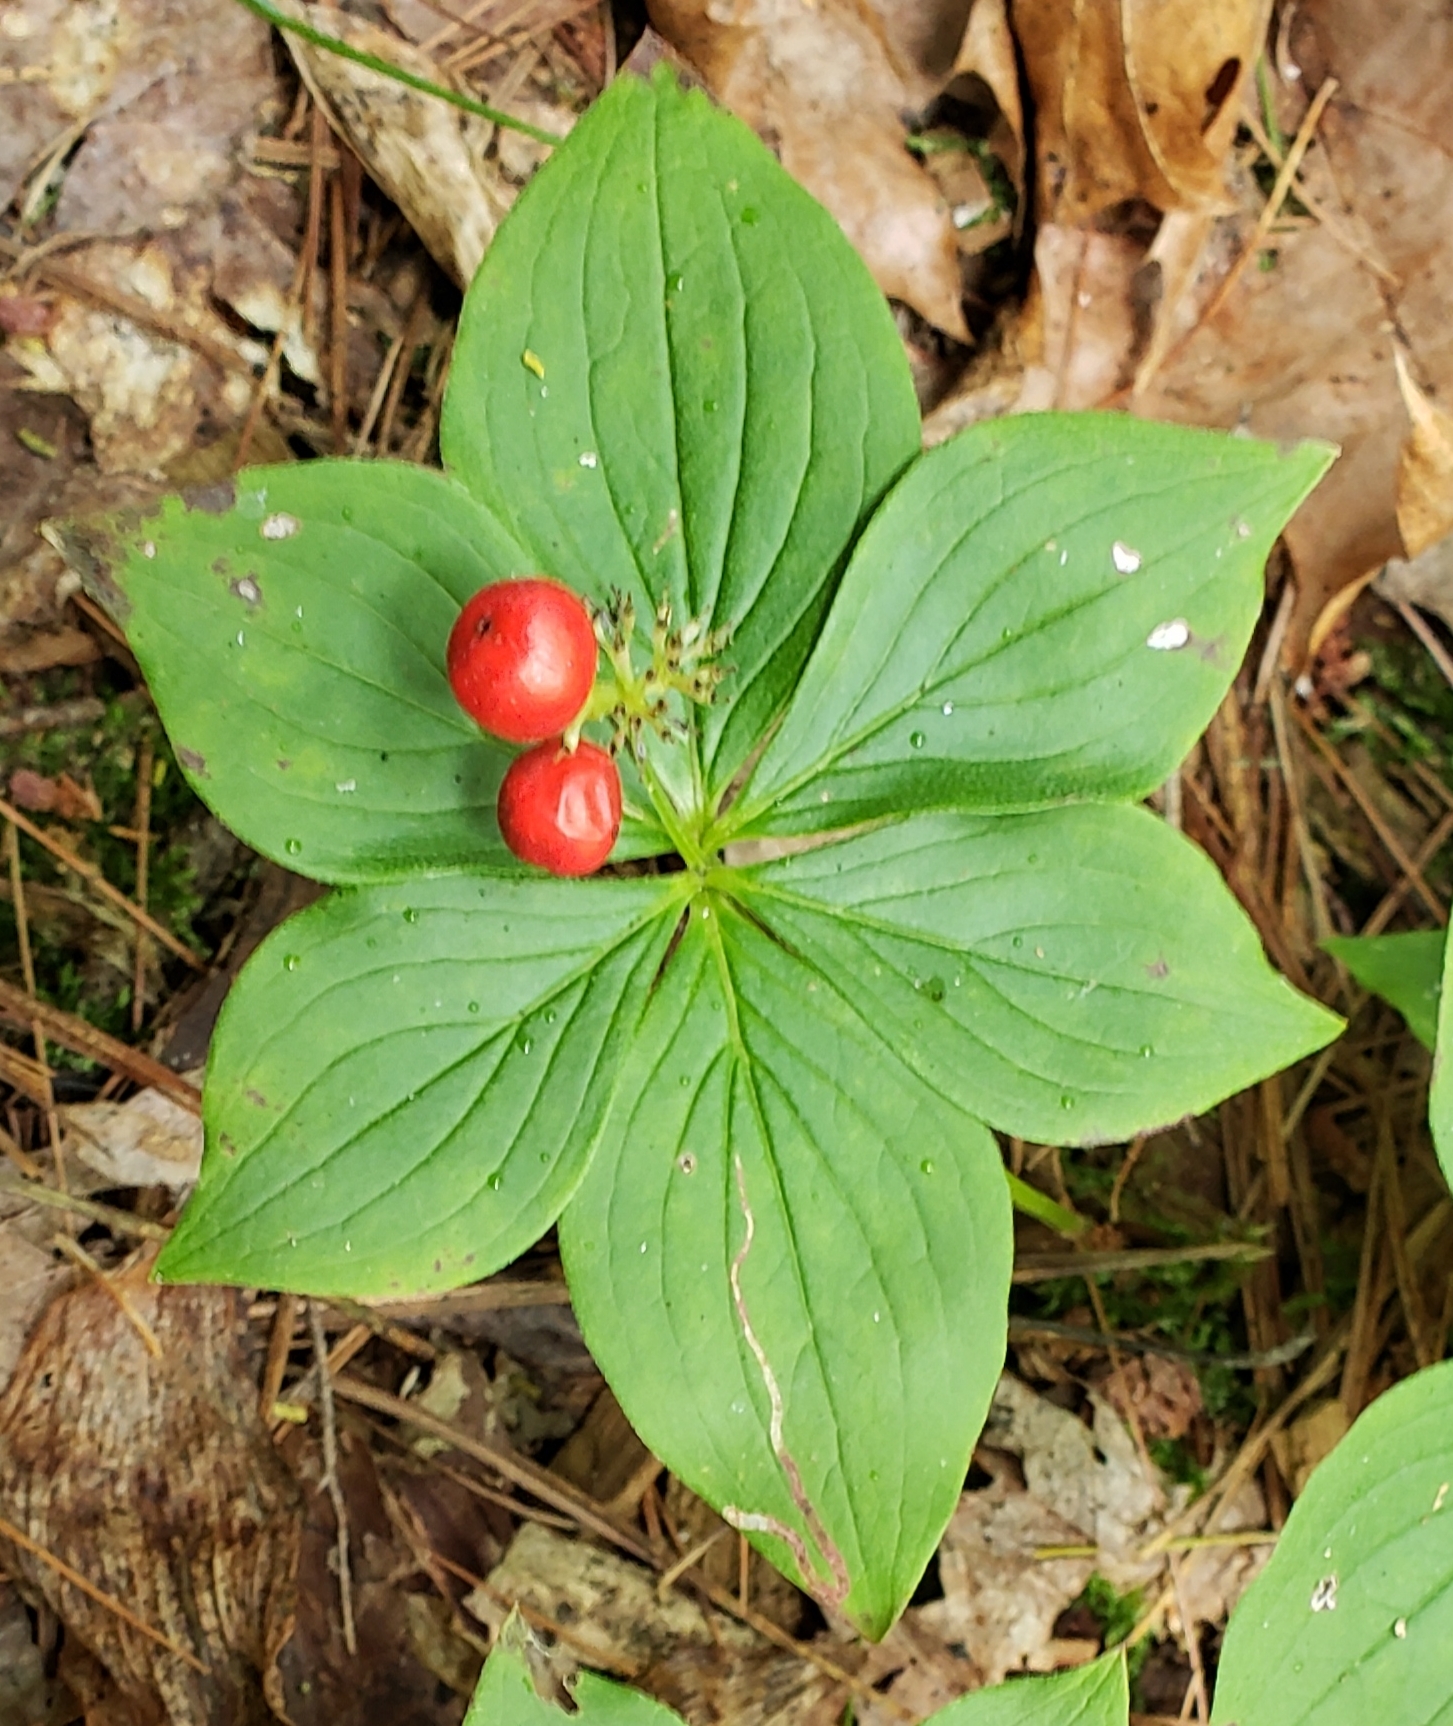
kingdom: Plantae
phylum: Tracheophyta
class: Magnoliopsida
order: Cornales
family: Cornaceae
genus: Cornus
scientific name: Cornus canadensis
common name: Creeping dogwood
